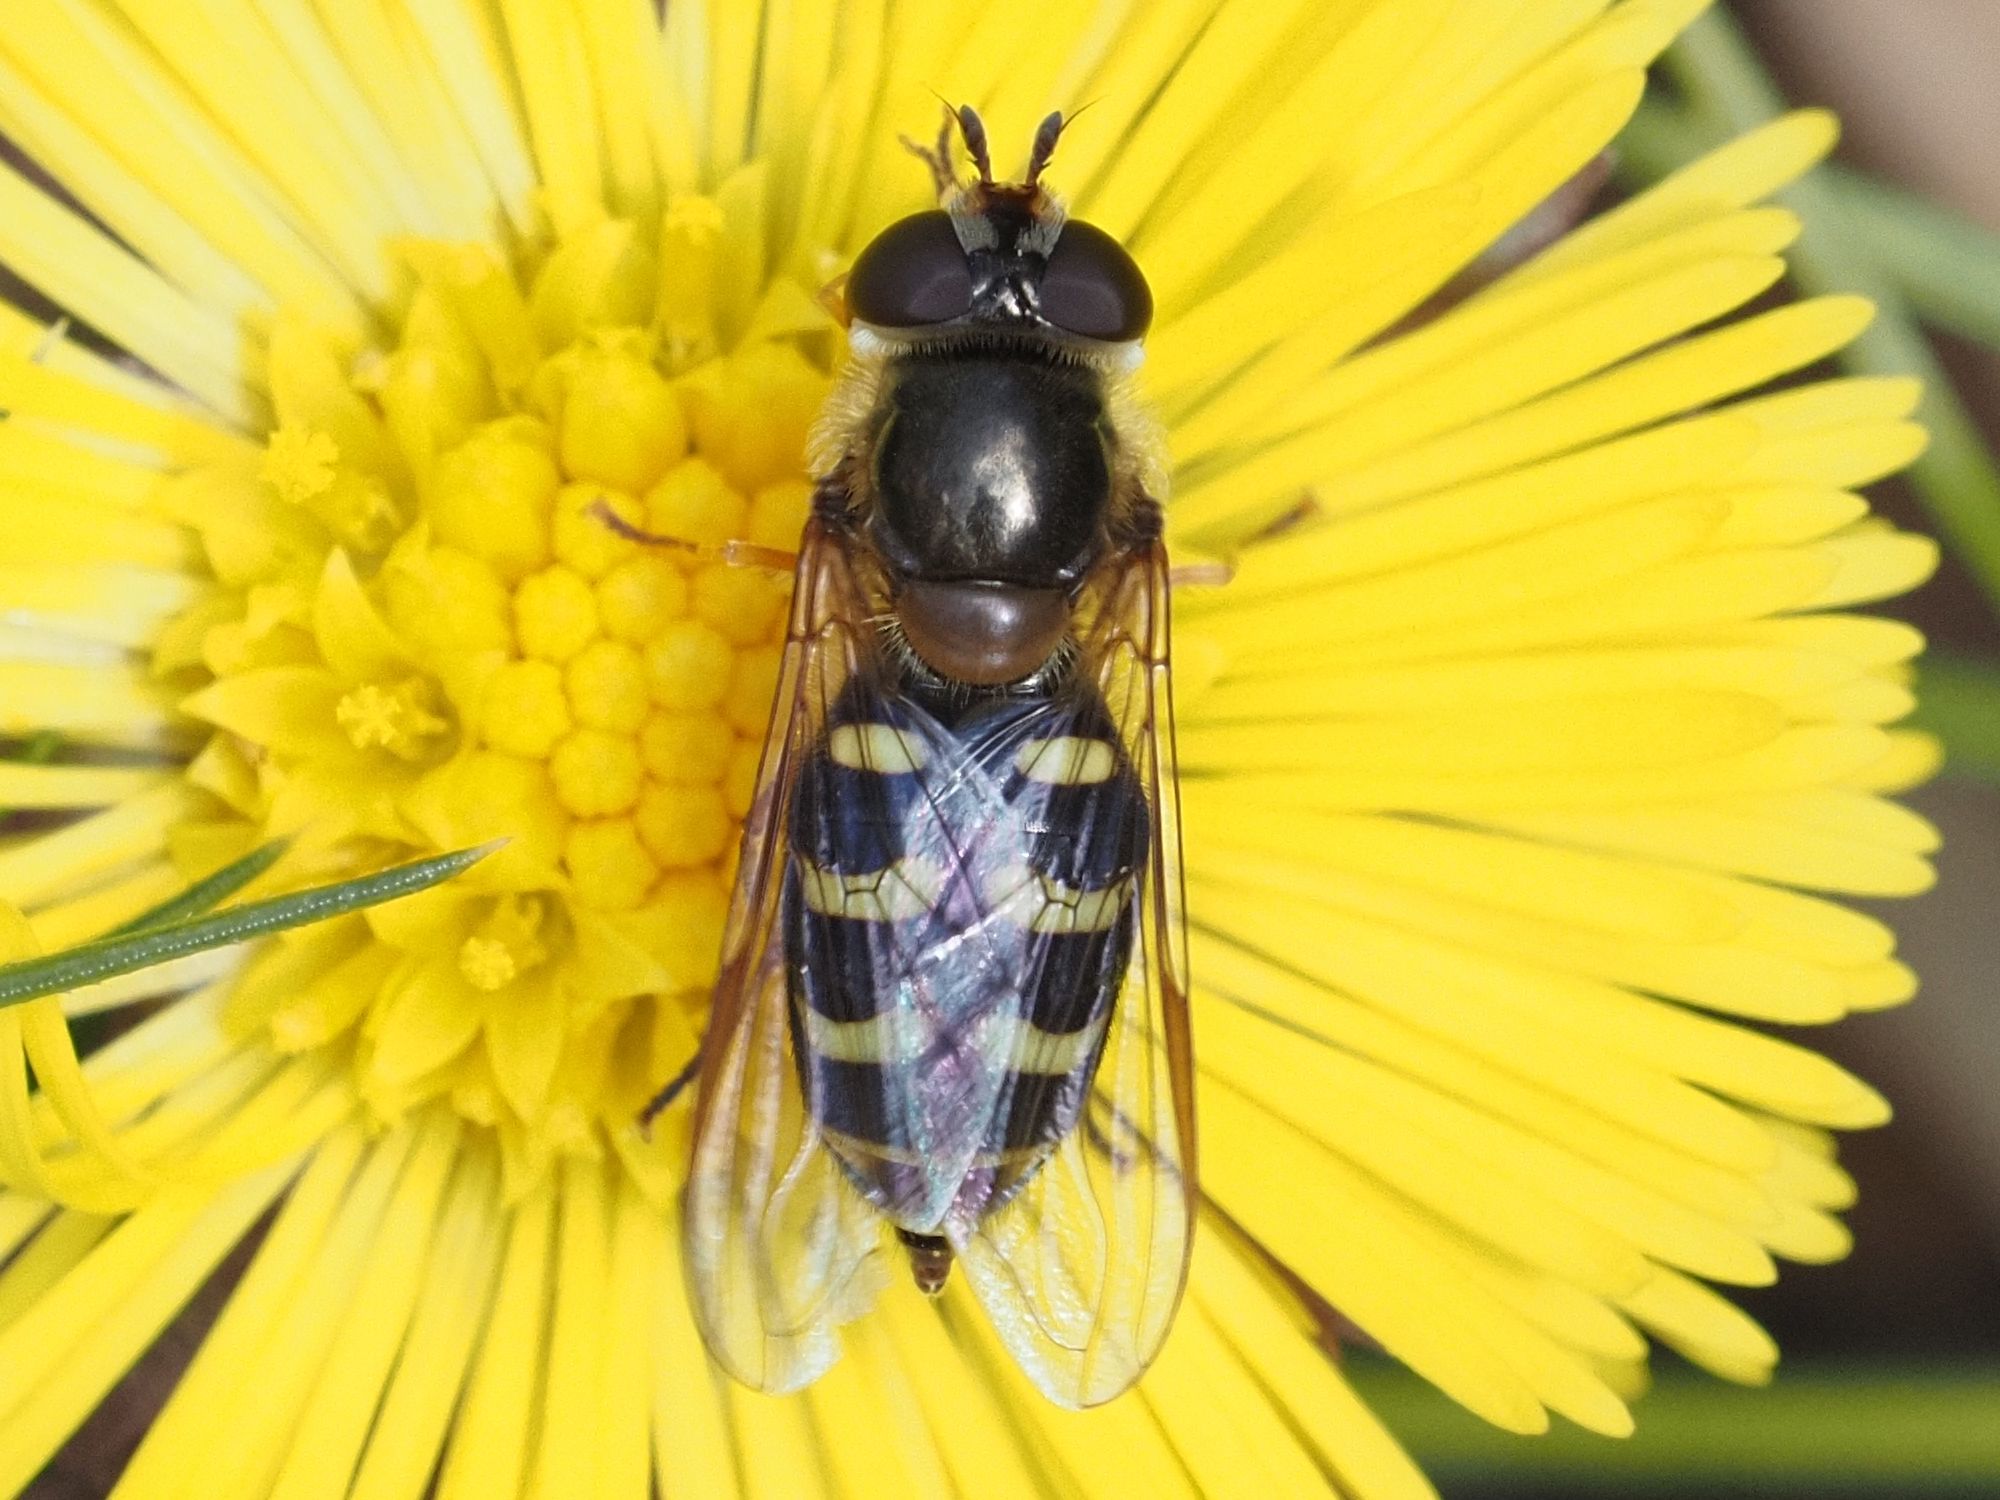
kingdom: Animalia
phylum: Arthropoda
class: Insecta
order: Diptera
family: Syrphidae
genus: Lapposyrphus
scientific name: Lapposyrphus lapponicus
